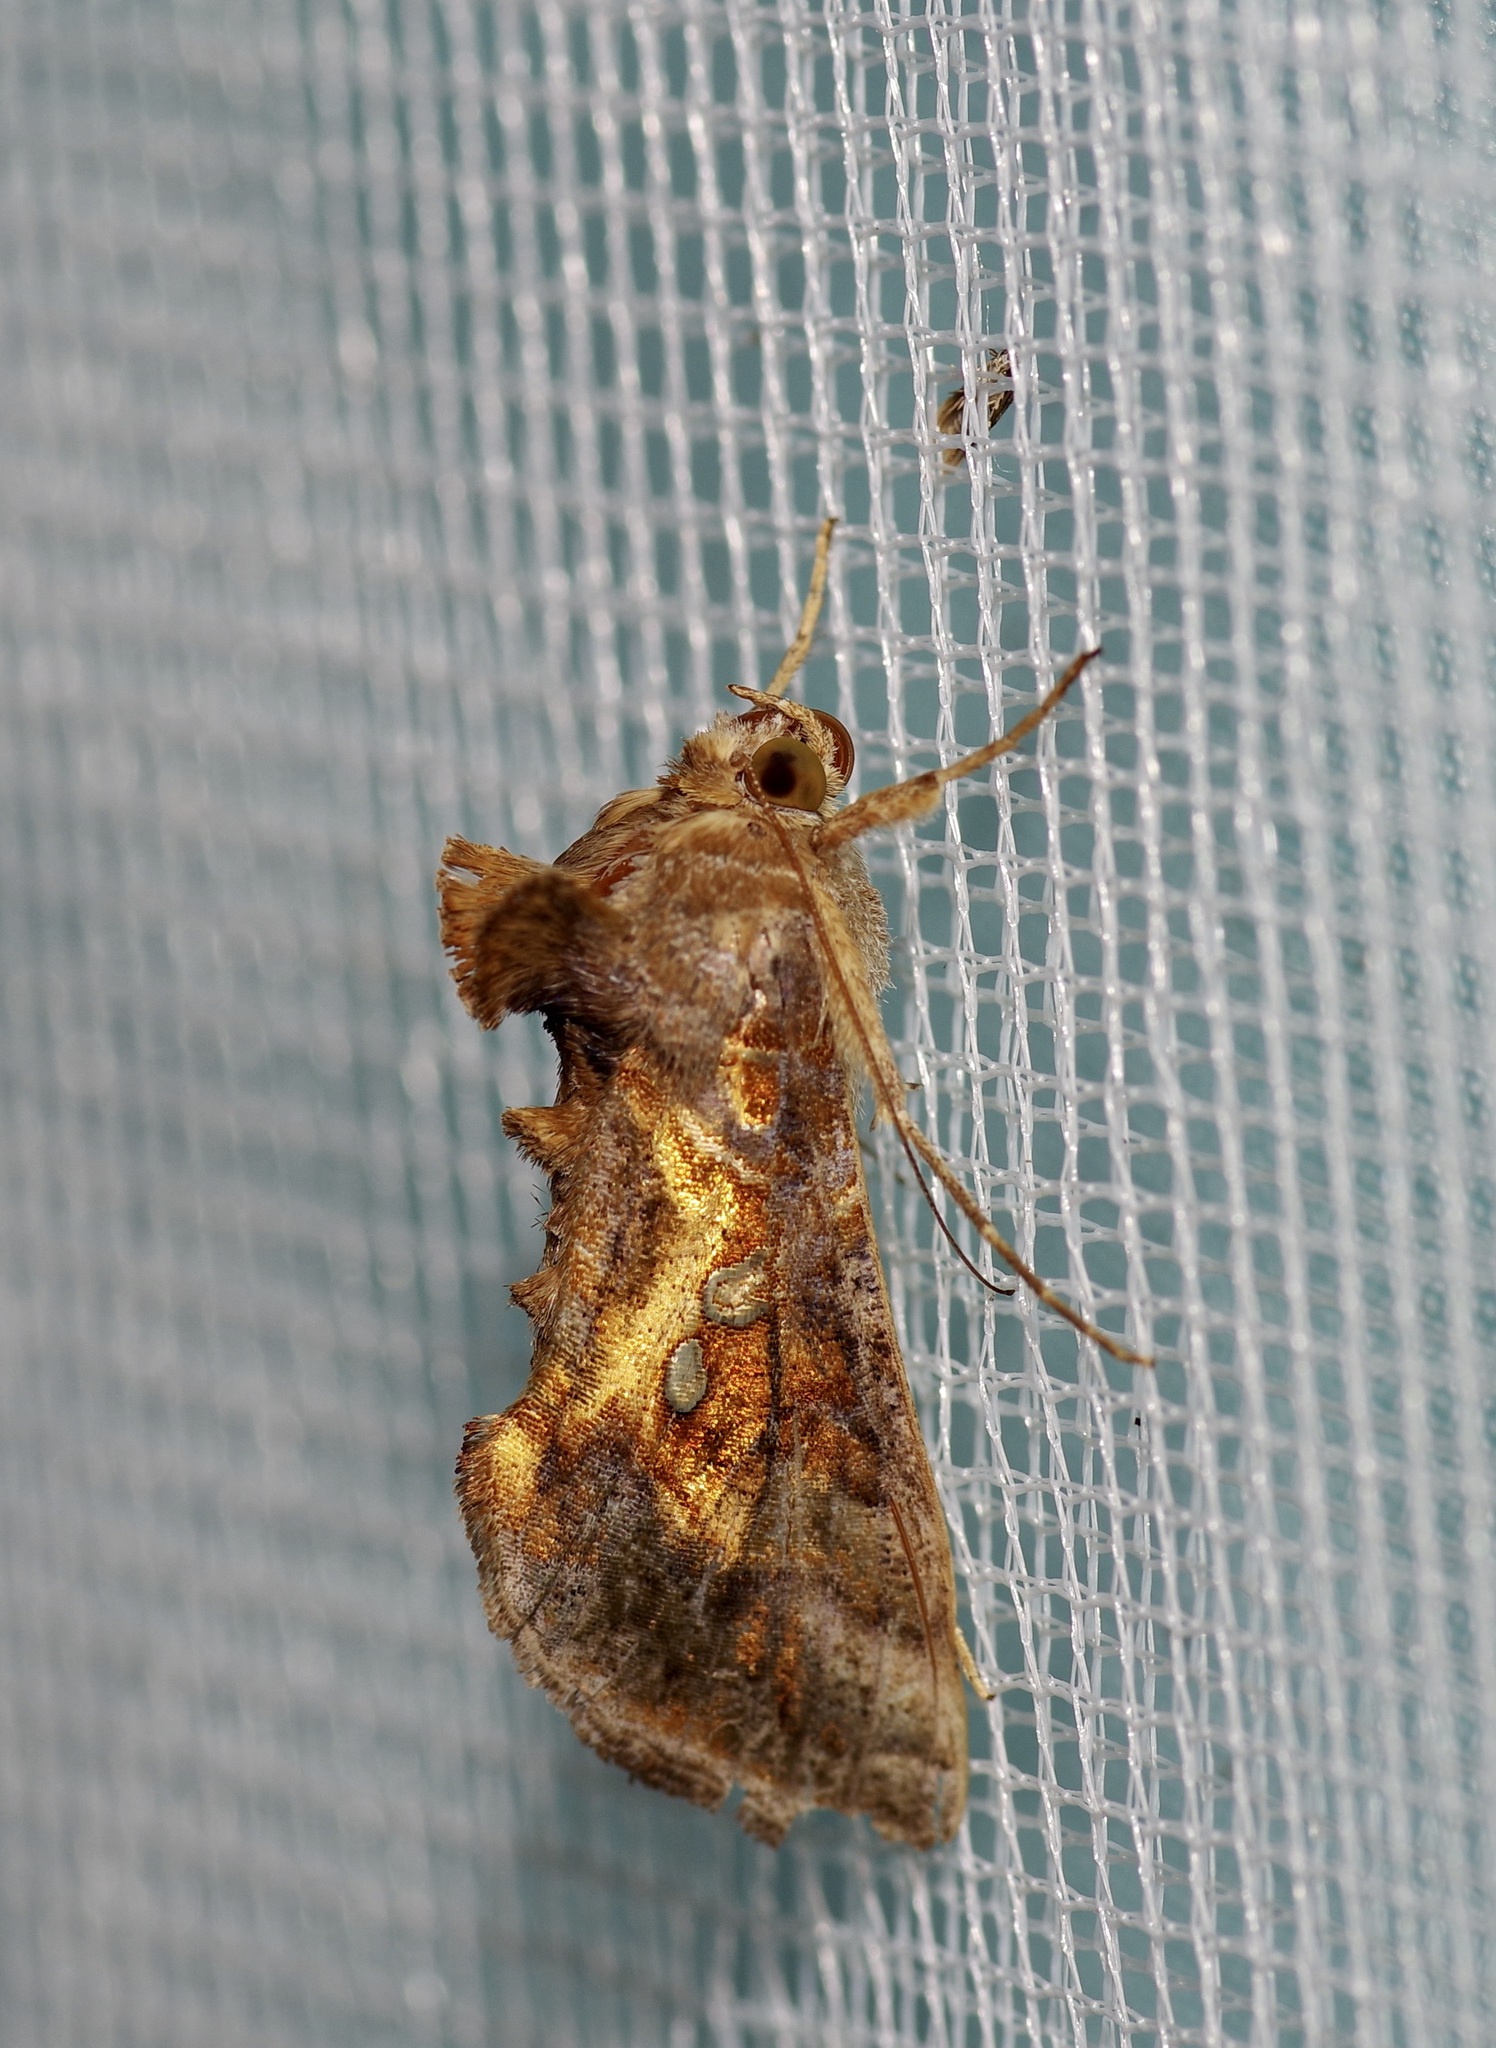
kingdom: Animalia
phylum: Arthropoda
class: Insecta
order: Lepidoptera
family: Noctuidae
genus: Chrysodeixis
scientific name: Chrysodeixis includens
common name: Cutworm moth
